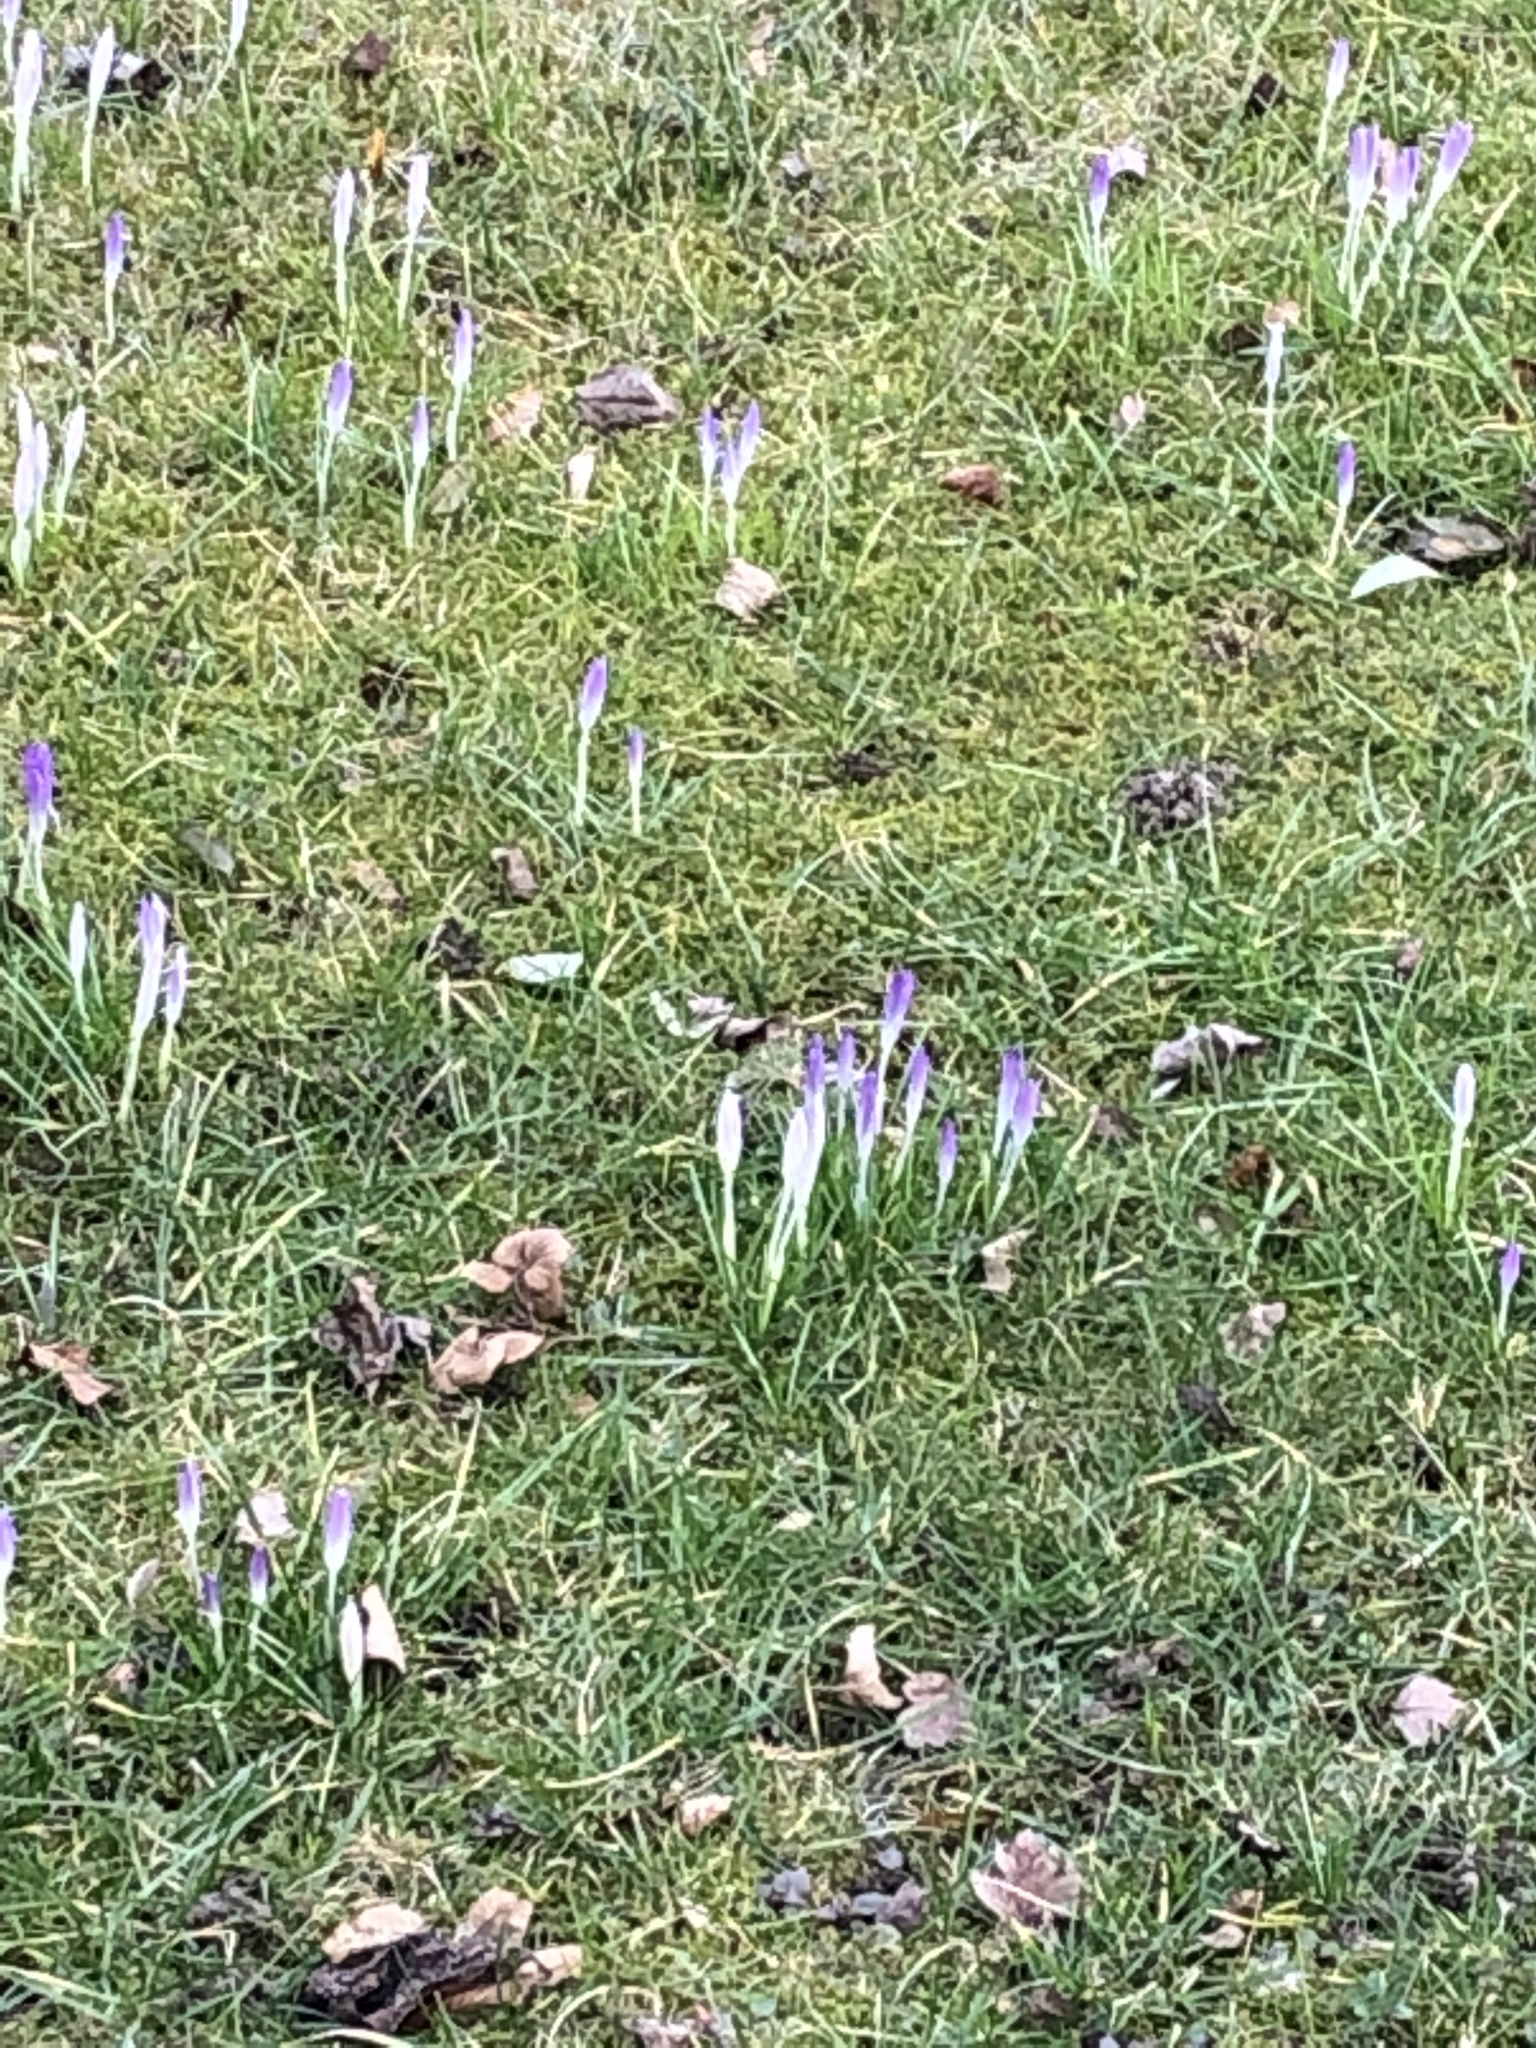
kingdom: Plantae
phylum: Tracheophyta
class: Liliopsida
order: Asparagales
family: Iridaceae
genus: Crocus
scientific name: Crocus tommasinianus
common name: Early crocus
